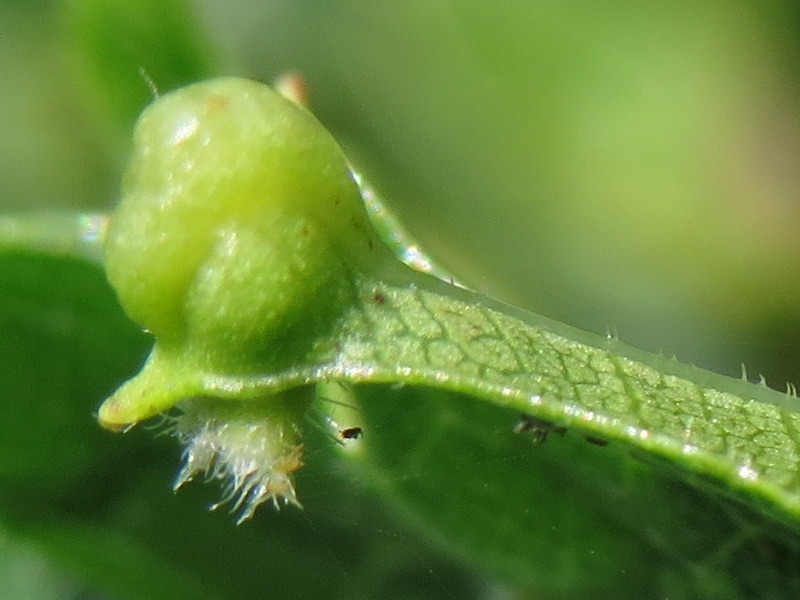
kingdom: Animalia
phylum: Arthropoda
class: Insecta
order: Hemiptera
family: Phylloxeridae
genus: Daktulosphaira
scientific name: Daktulosphaira vitifoliae
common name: Grape phylloxera
